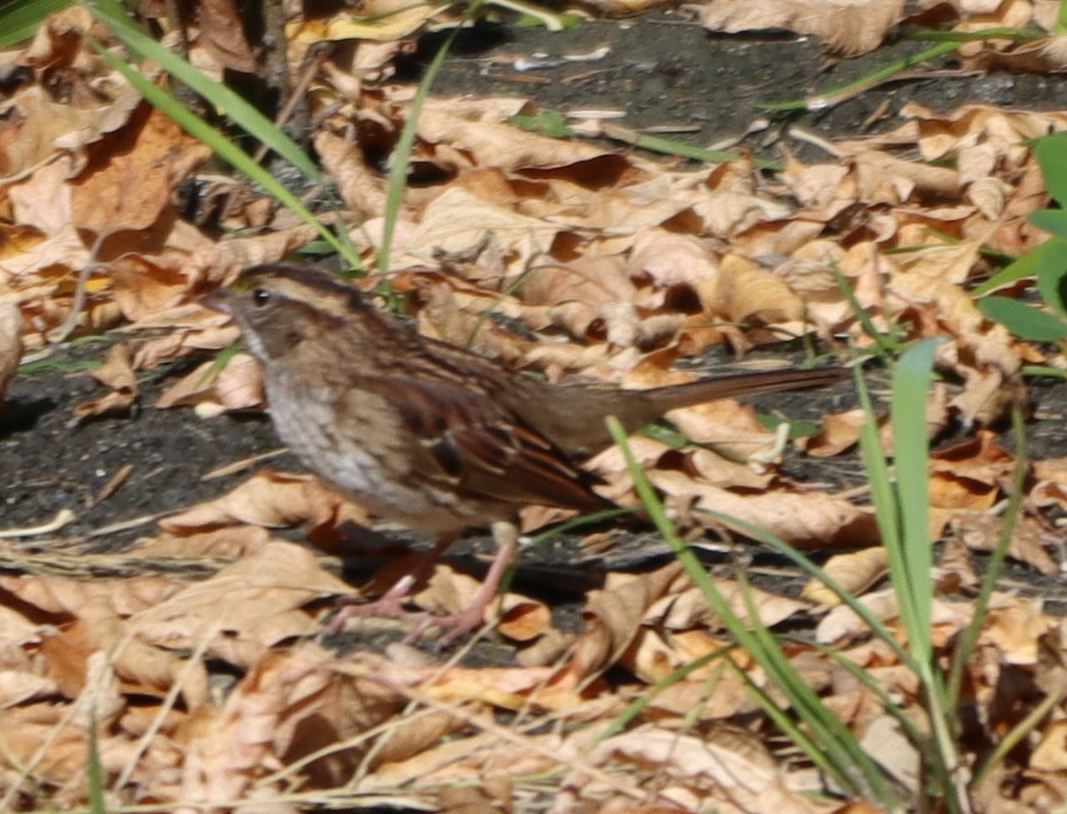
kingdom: Animalia
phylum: Chordata
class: Aves
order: Passeriformes
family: Passerellidae
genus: Zonotrichia
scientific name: Zonotrichia albicollis
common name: White-throated sparrow
